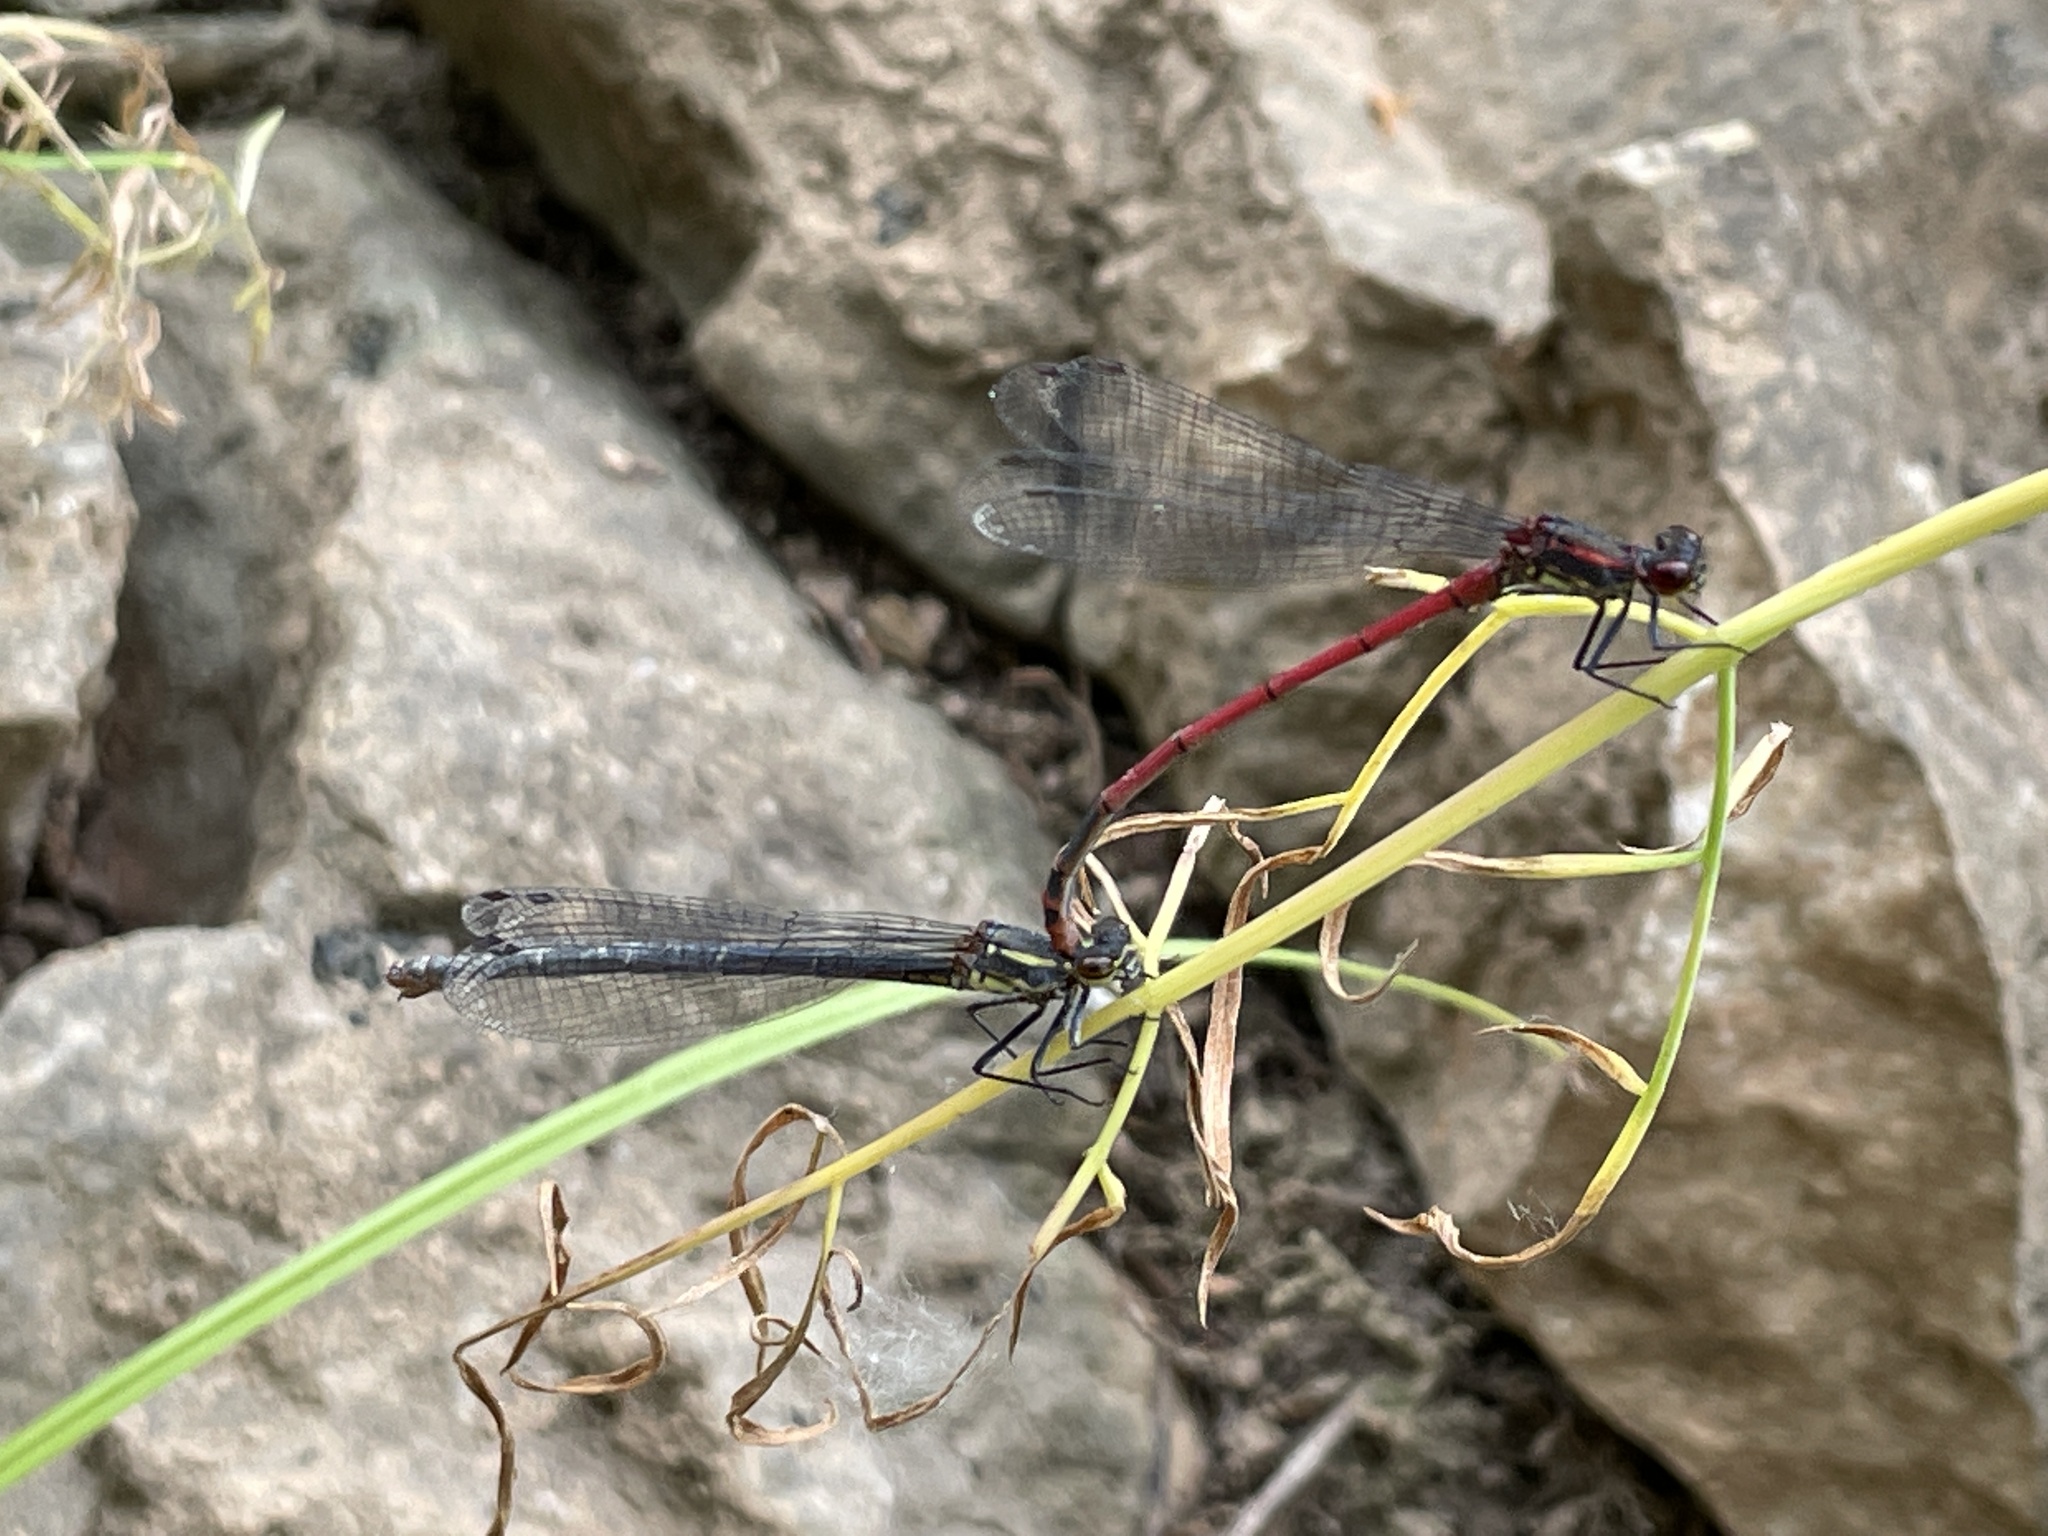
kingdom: Animalia
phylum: Arthropoda
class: Insecta
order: Odonata
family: Coenagrionidae
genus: Pyrrhosoma
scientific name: Pyrrhosoma nymphula
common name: Large red damsel
